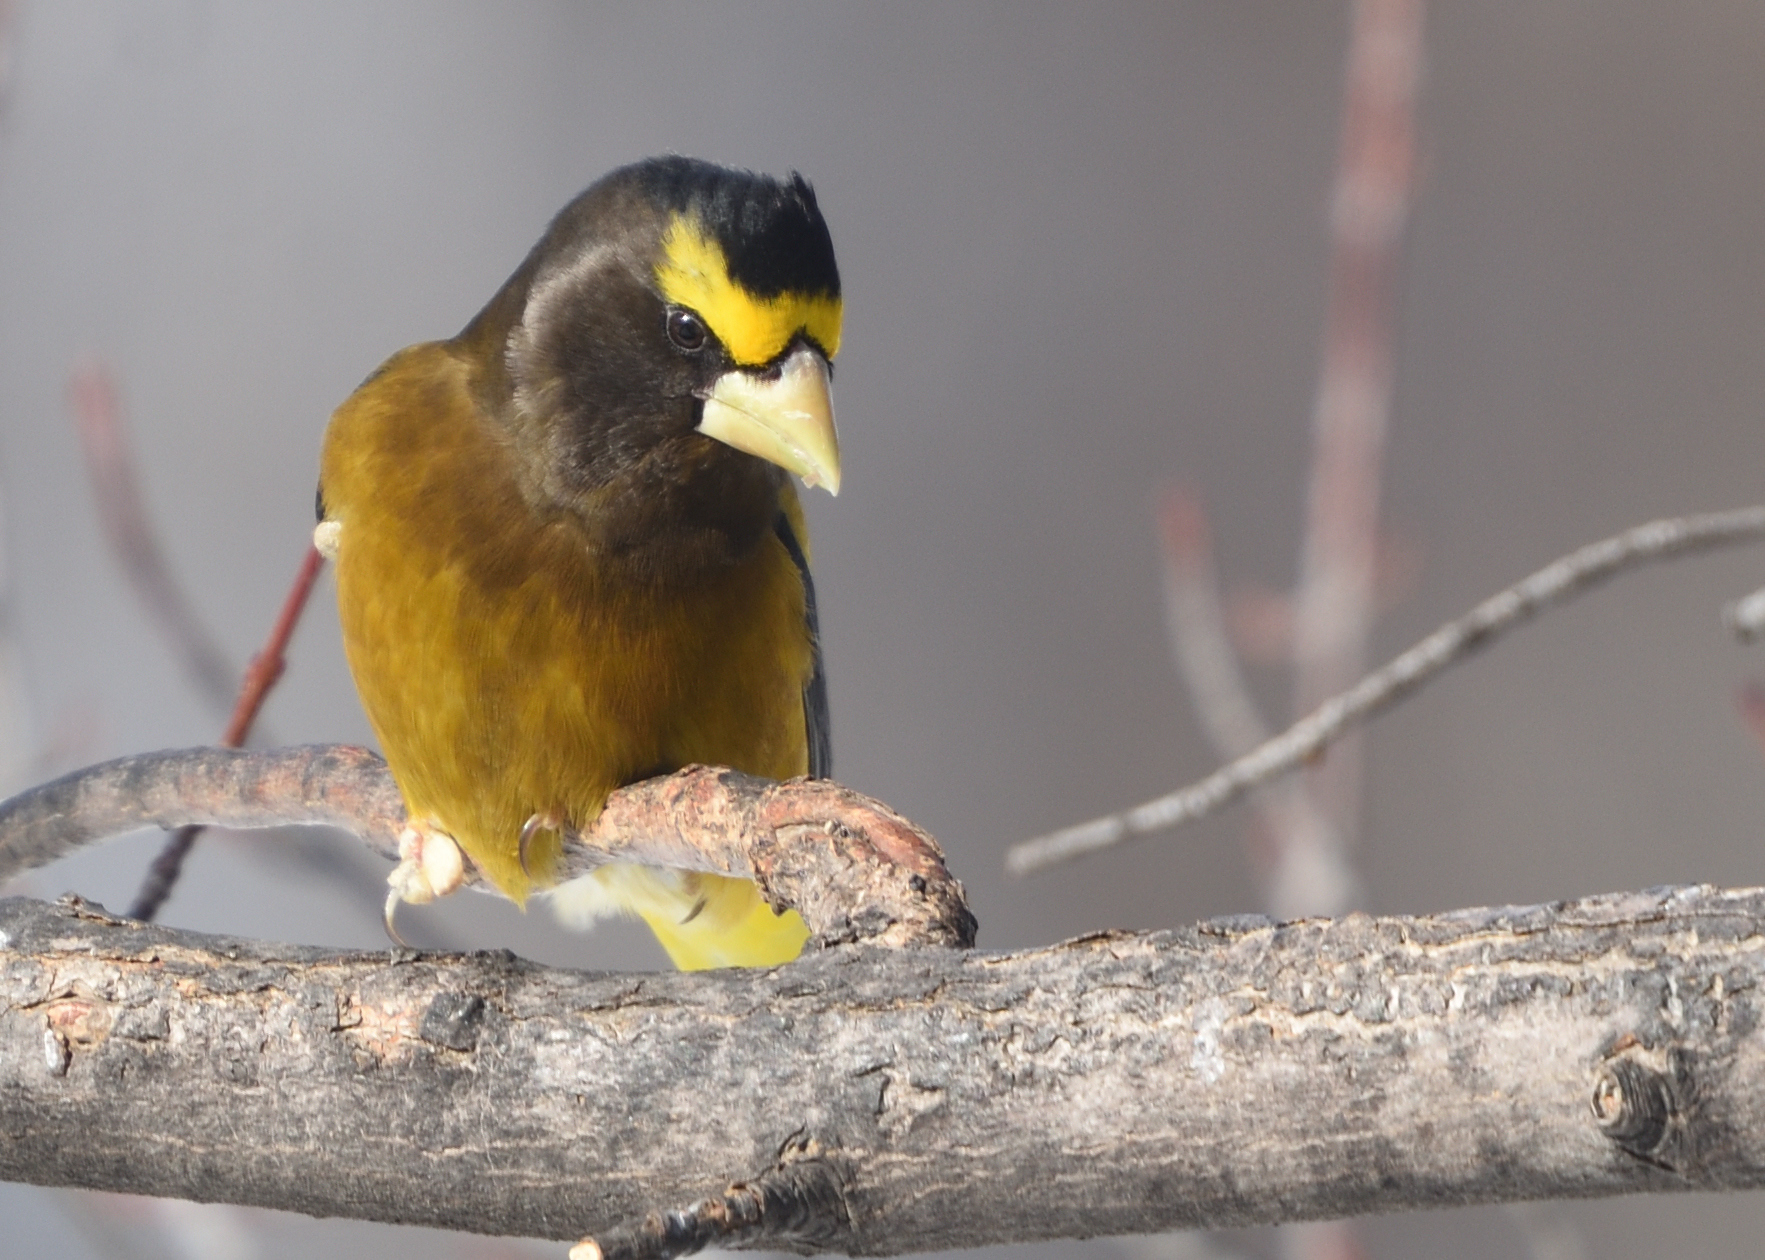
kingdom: Animalia
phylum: Chordata
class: Aves
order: Passeriformes
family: Fringillidae
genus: Hesperiphona
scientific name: Hesperiphona vespertina
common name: Evening grosbeak
